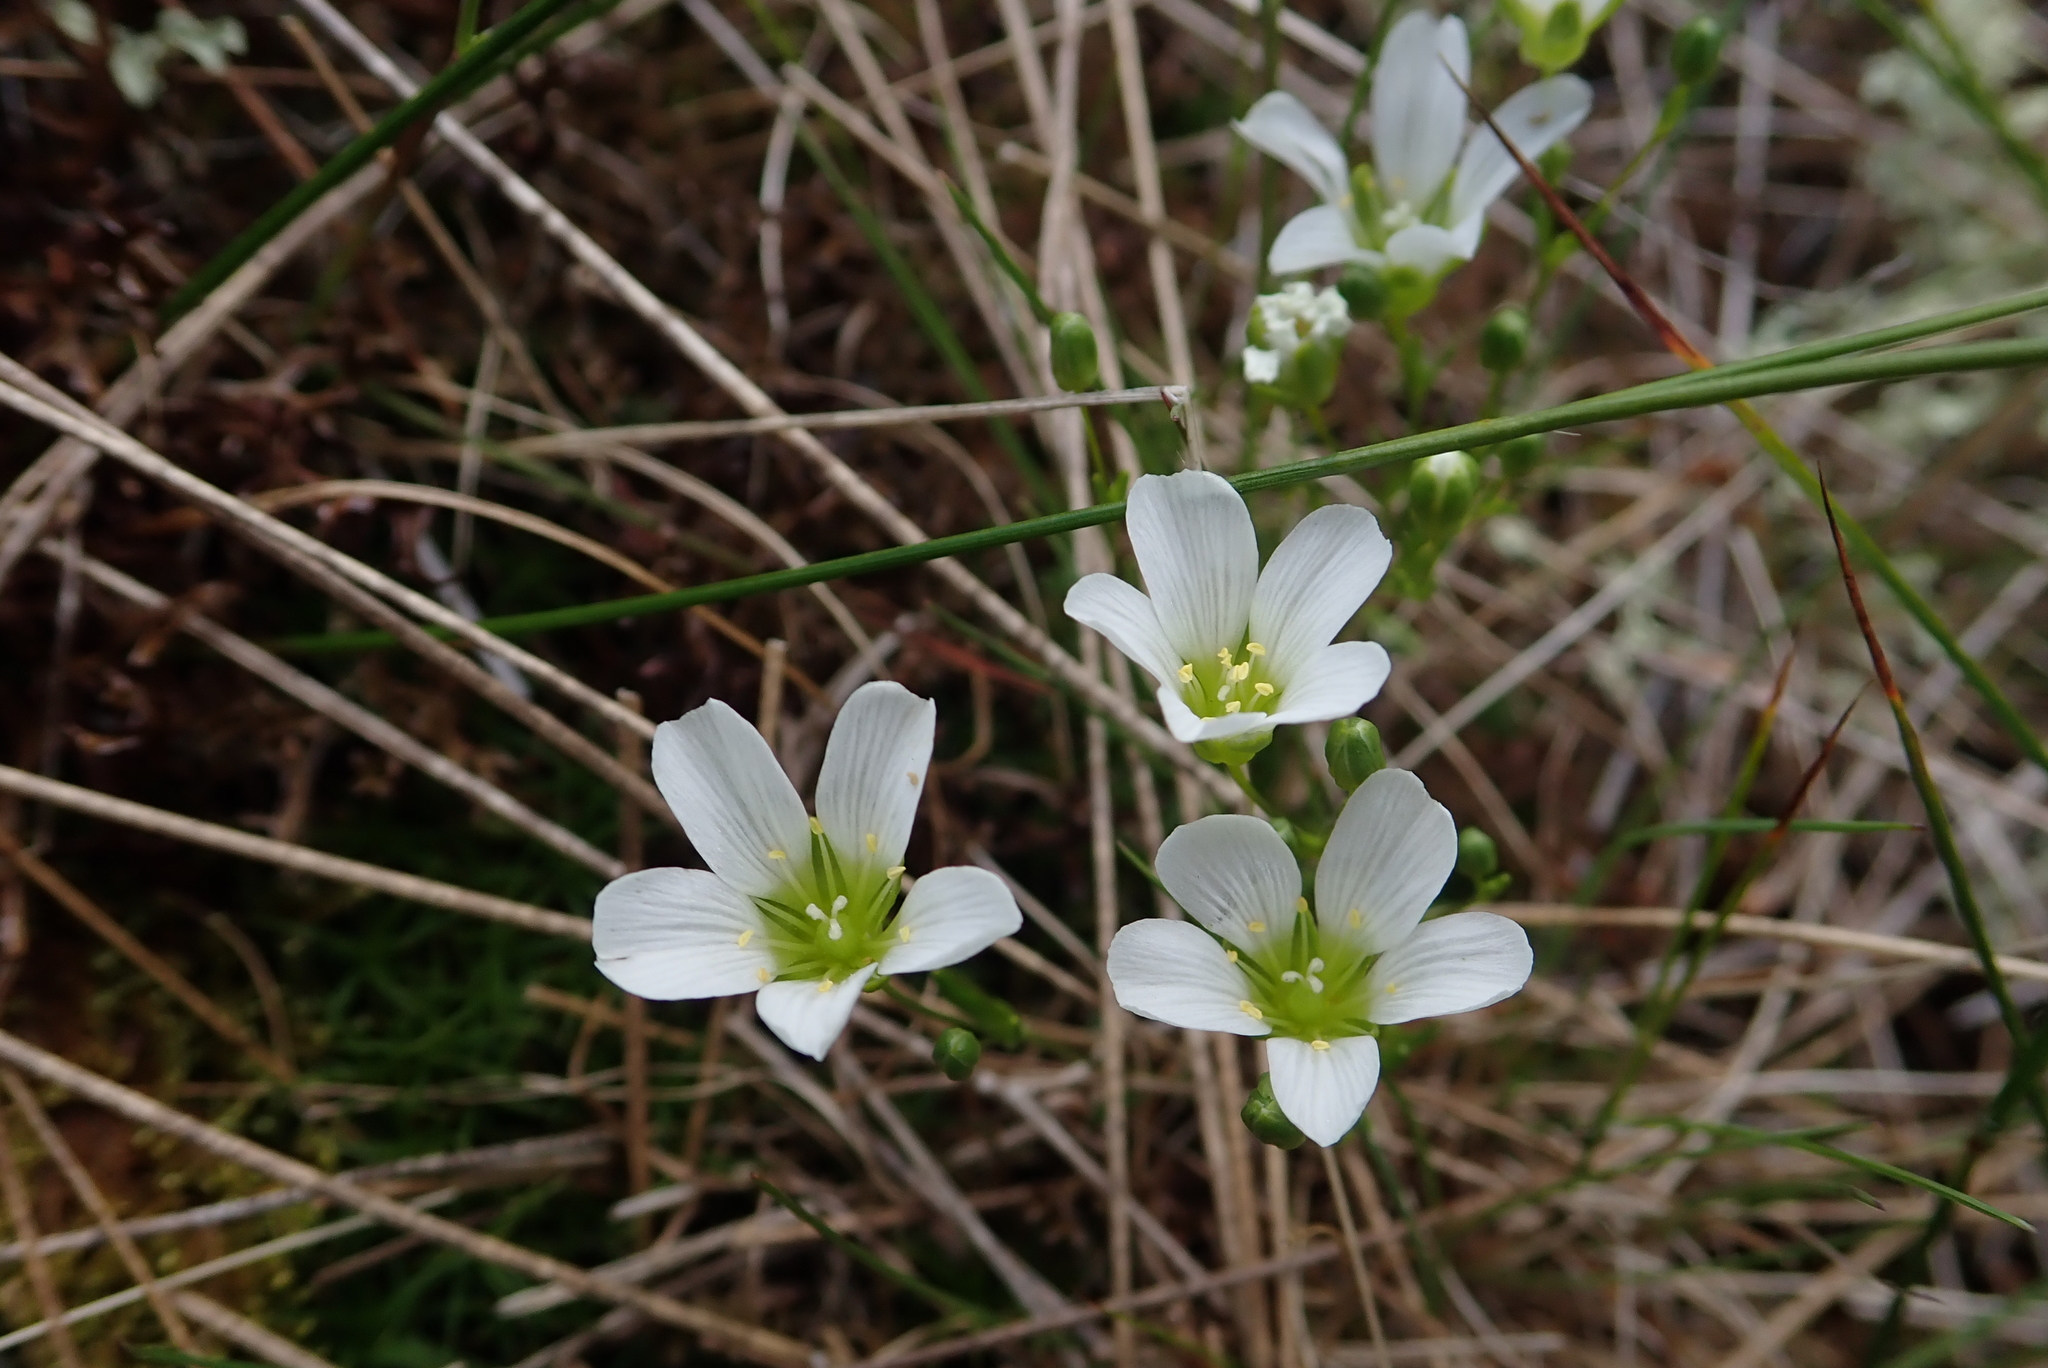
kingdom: Plantae
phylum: Tracheophyta
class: Magnoliopsida
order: Caryophyllales
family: Caryophyllaceae
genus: Geocarpon
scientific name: Geocarpon groenlandicum
